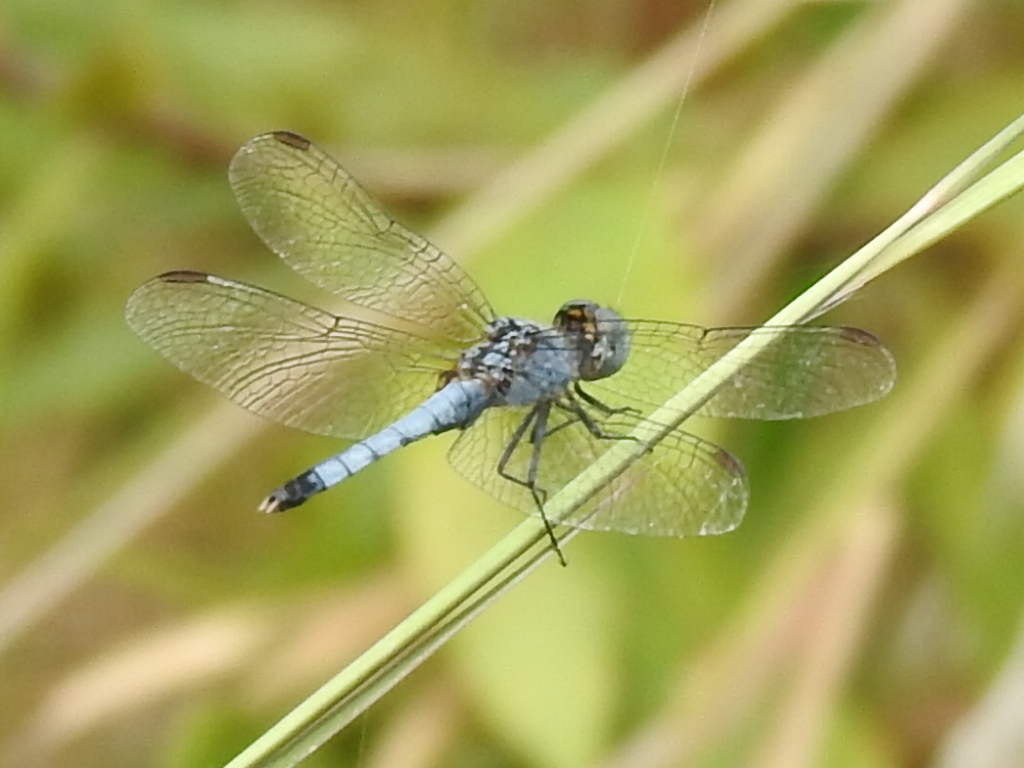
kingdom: Animalia
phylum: Arthropoda
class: Insecta
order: Odonata
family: Libellulidae
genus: Erythrodiplax
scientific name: Erythrodiplax minuscula
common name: Little blue dragonlet
